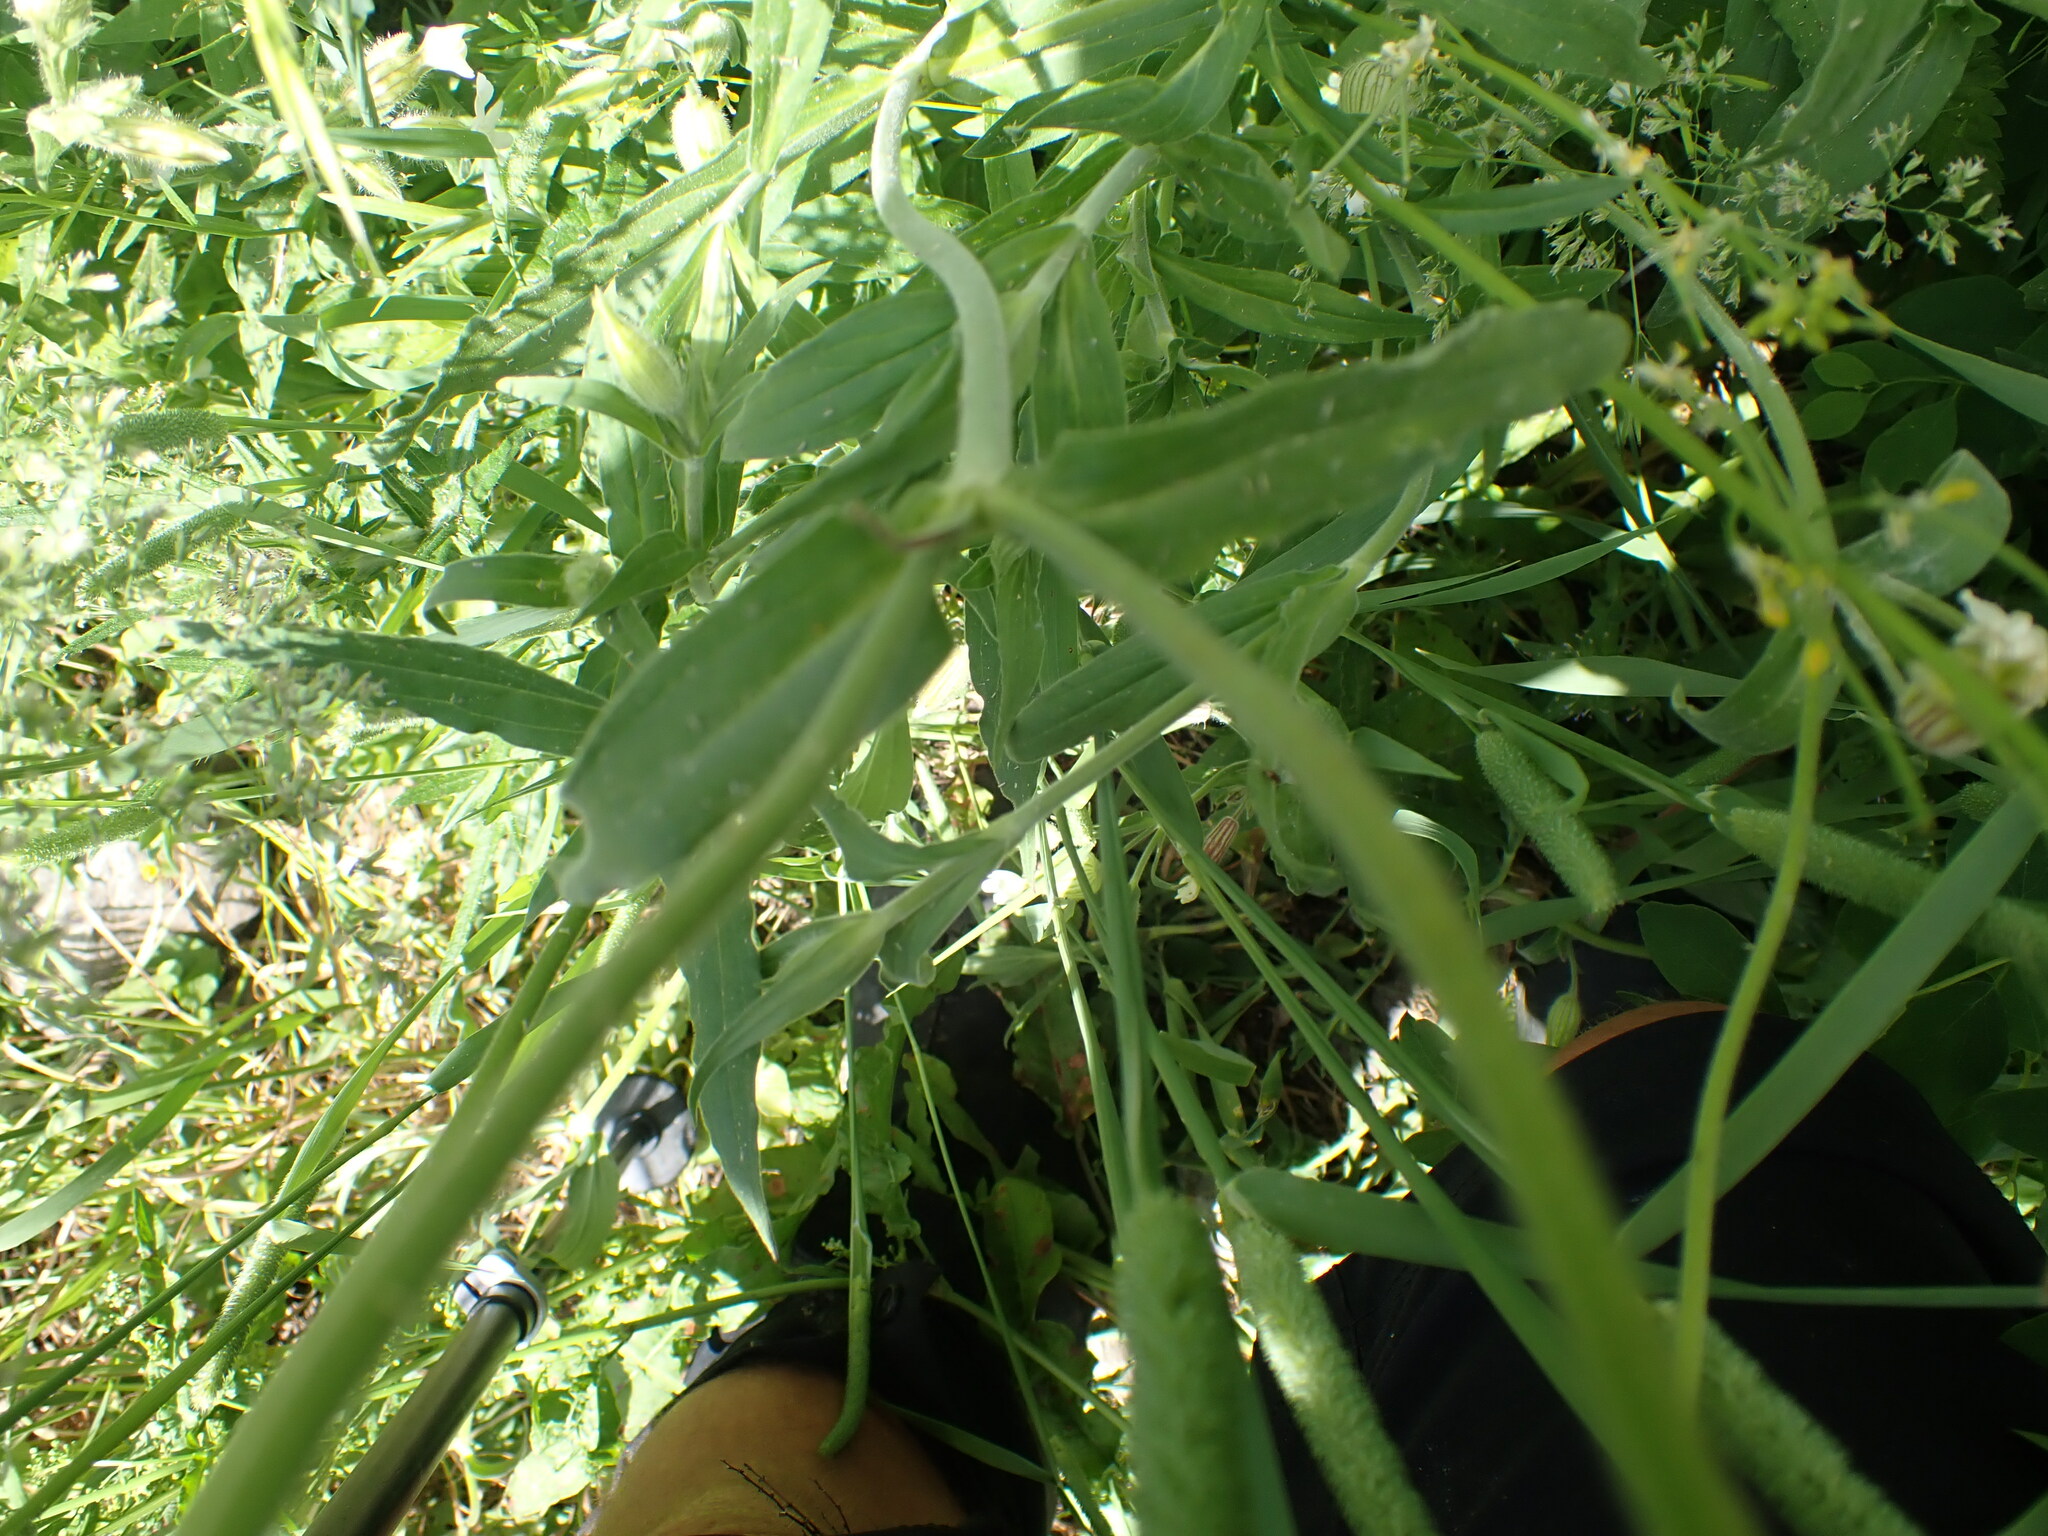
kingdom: Plantae
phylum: Tracheophyta
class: Magnoliopsida
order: Caryophyllales
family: Caryophyllaceae
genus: Silene
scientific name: Silene latifolia
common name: White campion
